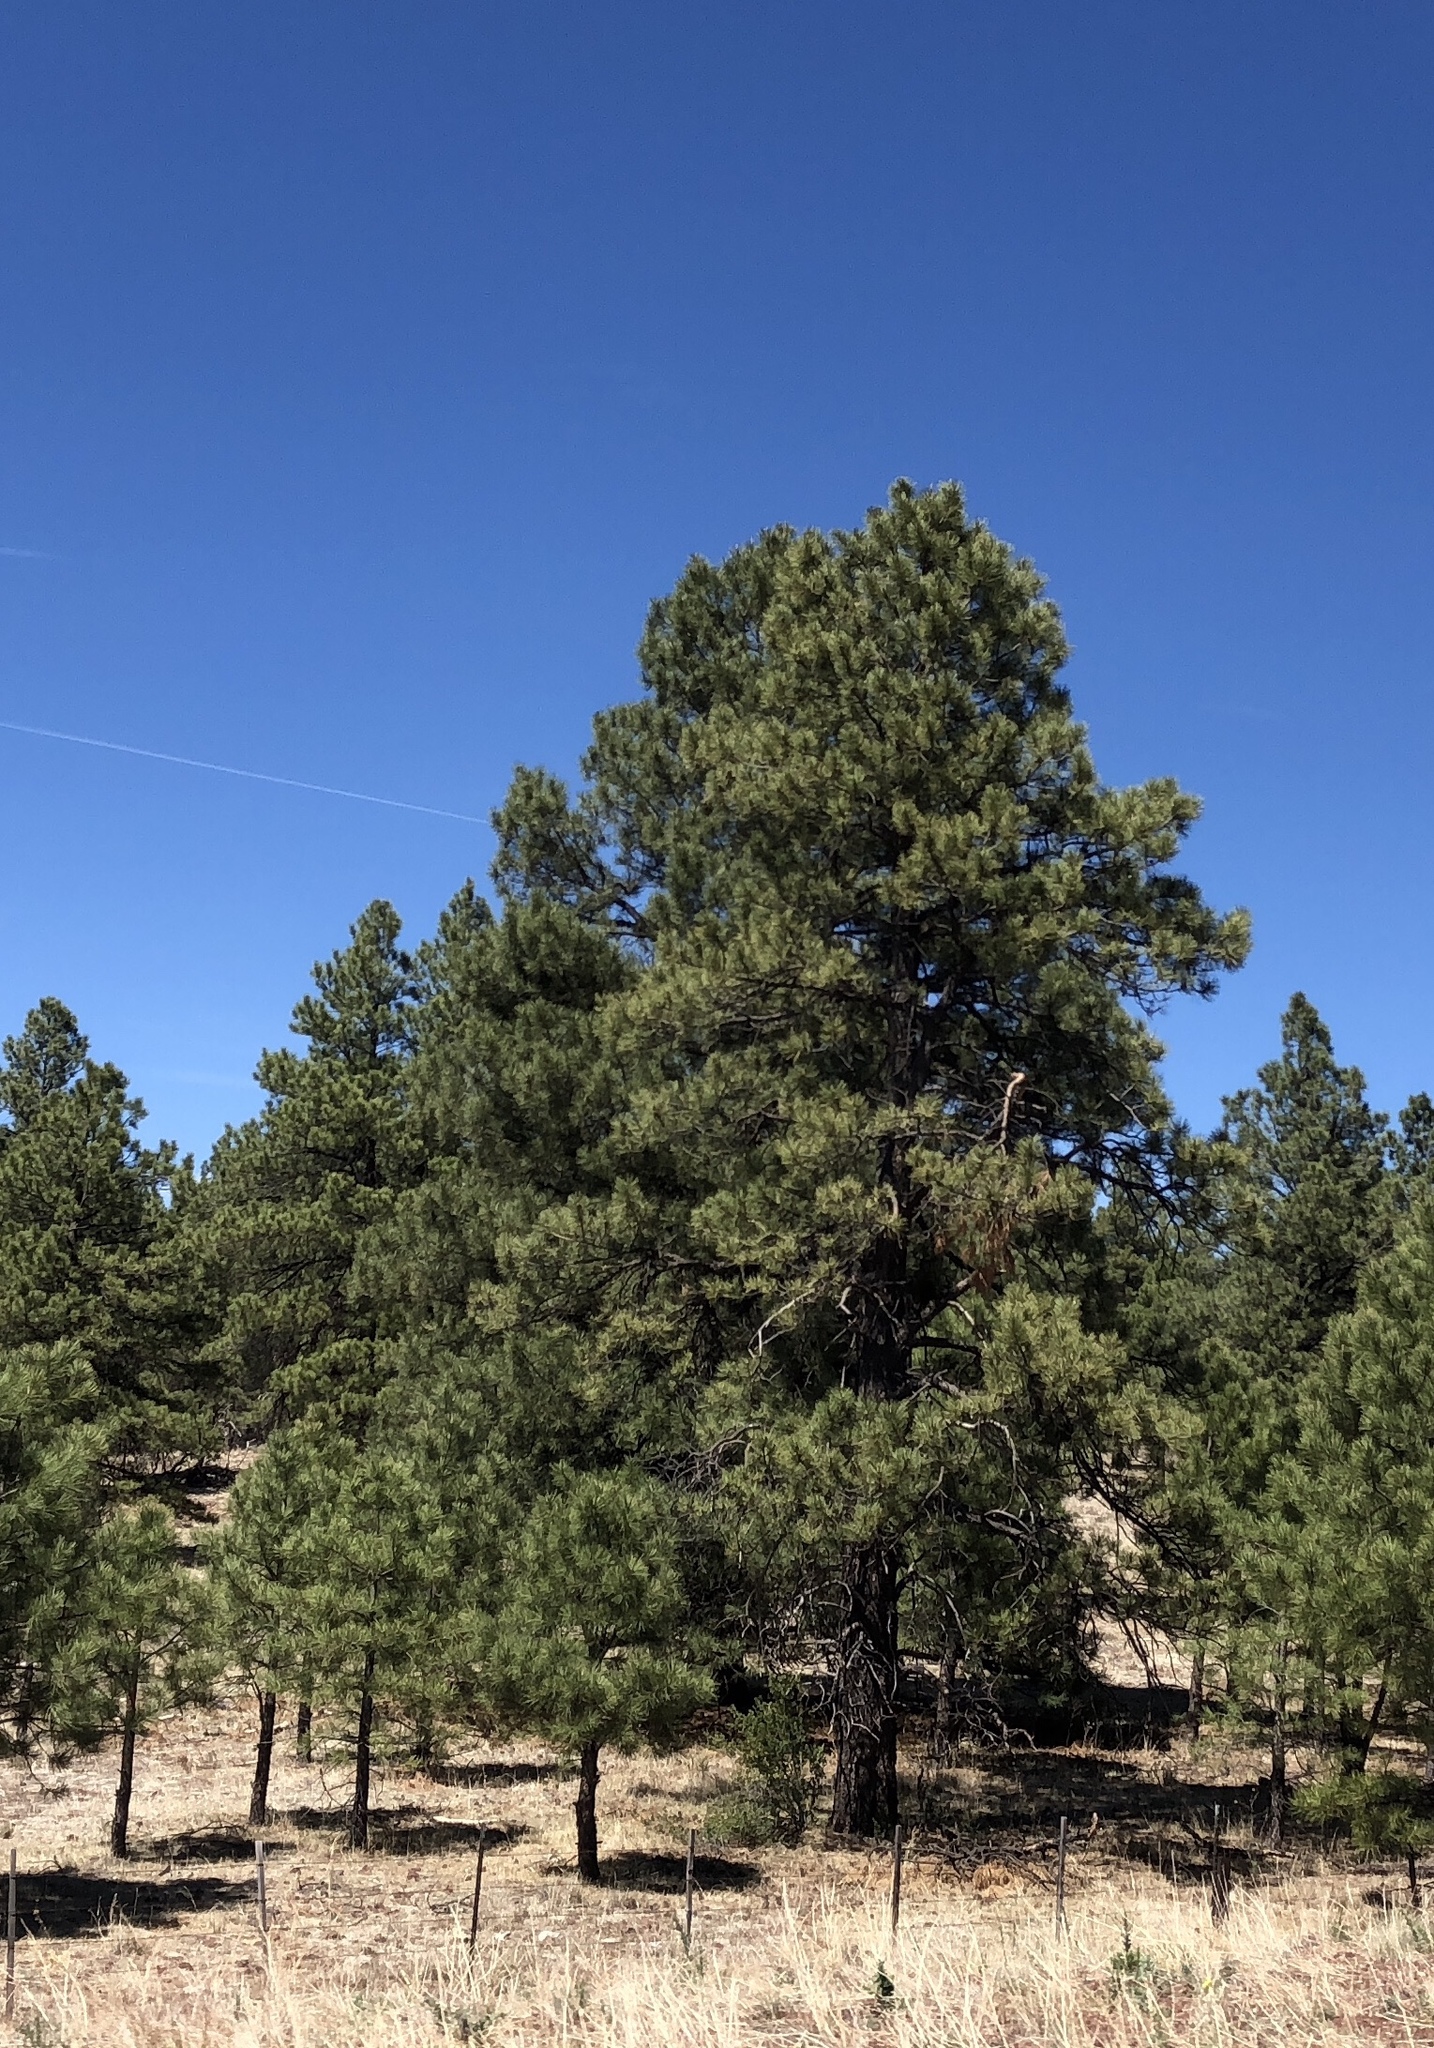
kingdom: Plantae
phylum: Tracheophyta
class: Pinopsida
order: Pinales
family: Pinaceae
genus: Pinus
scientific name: Pinus ponderosa
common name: Western yellow-pine
